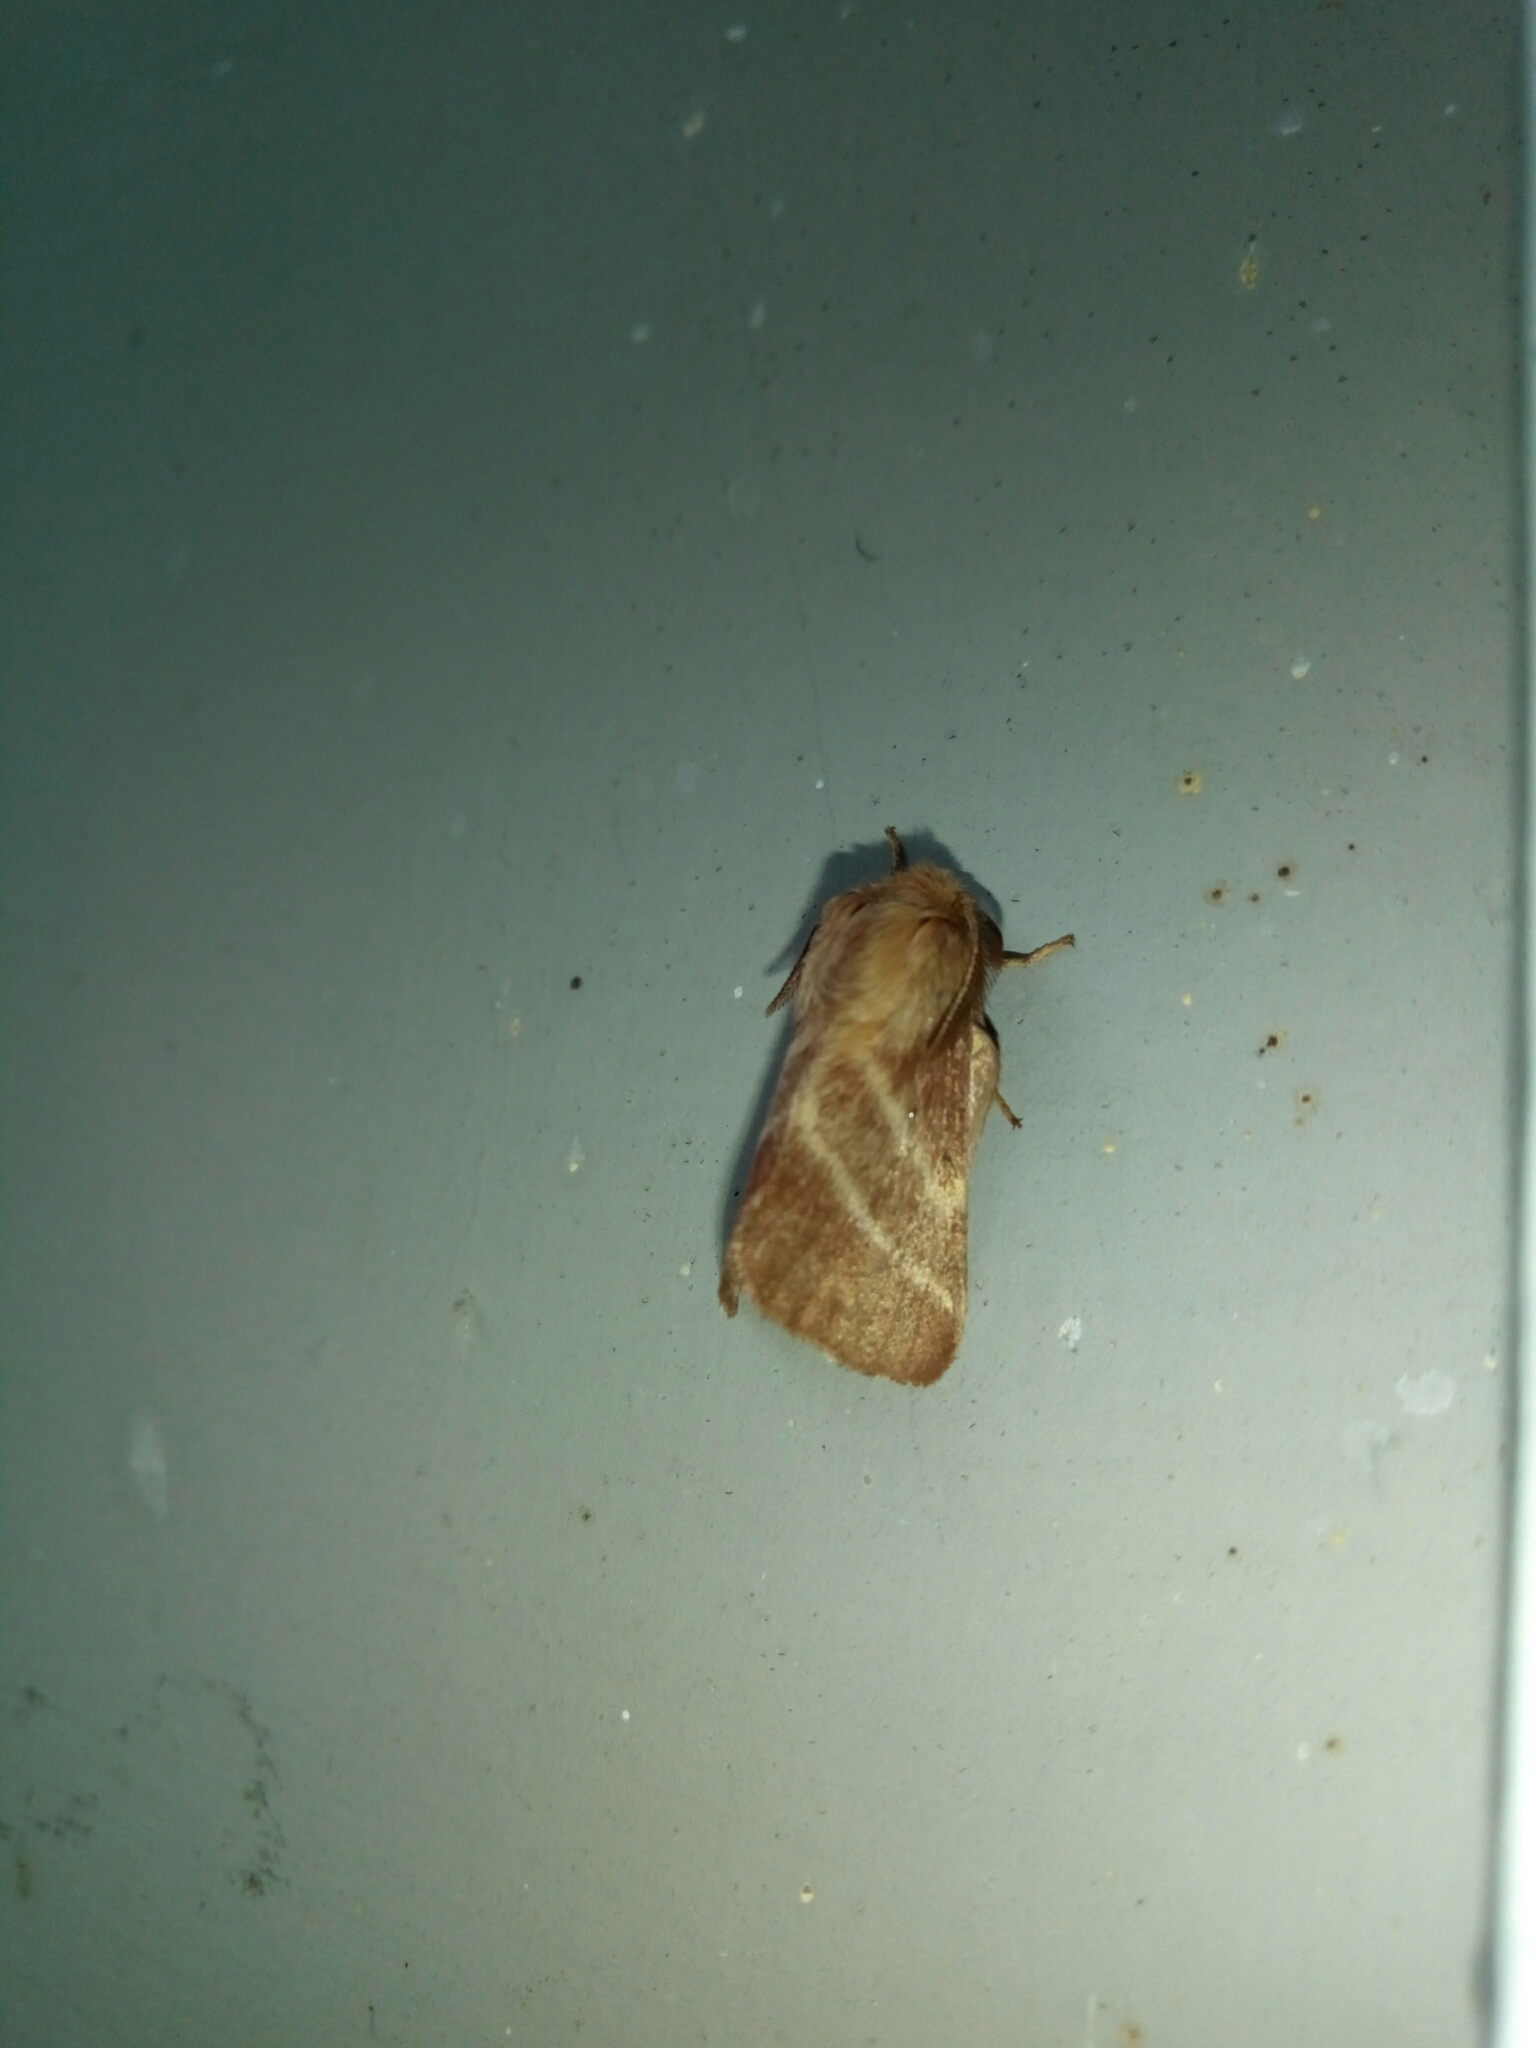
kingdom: Animalia
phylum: Arthropoda
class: Insecta
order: Lepidoptera
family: Lasiocampidae
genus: Malacosoma
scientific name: Malacosoma americana
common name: Eastern tent caterpillar moth
